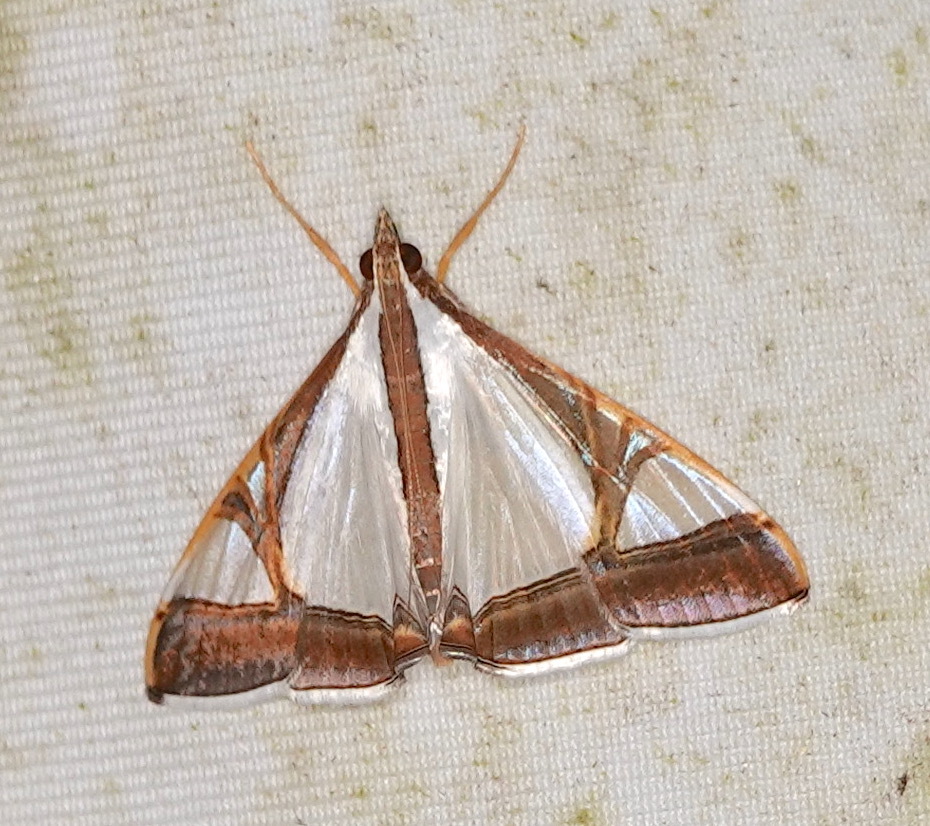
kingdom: Animalia
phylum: Arthropoda
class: Insecta
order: Lepidoptera
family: Crambidae
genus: Agrioglypta
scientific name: Agrioglypta eurytusalis
